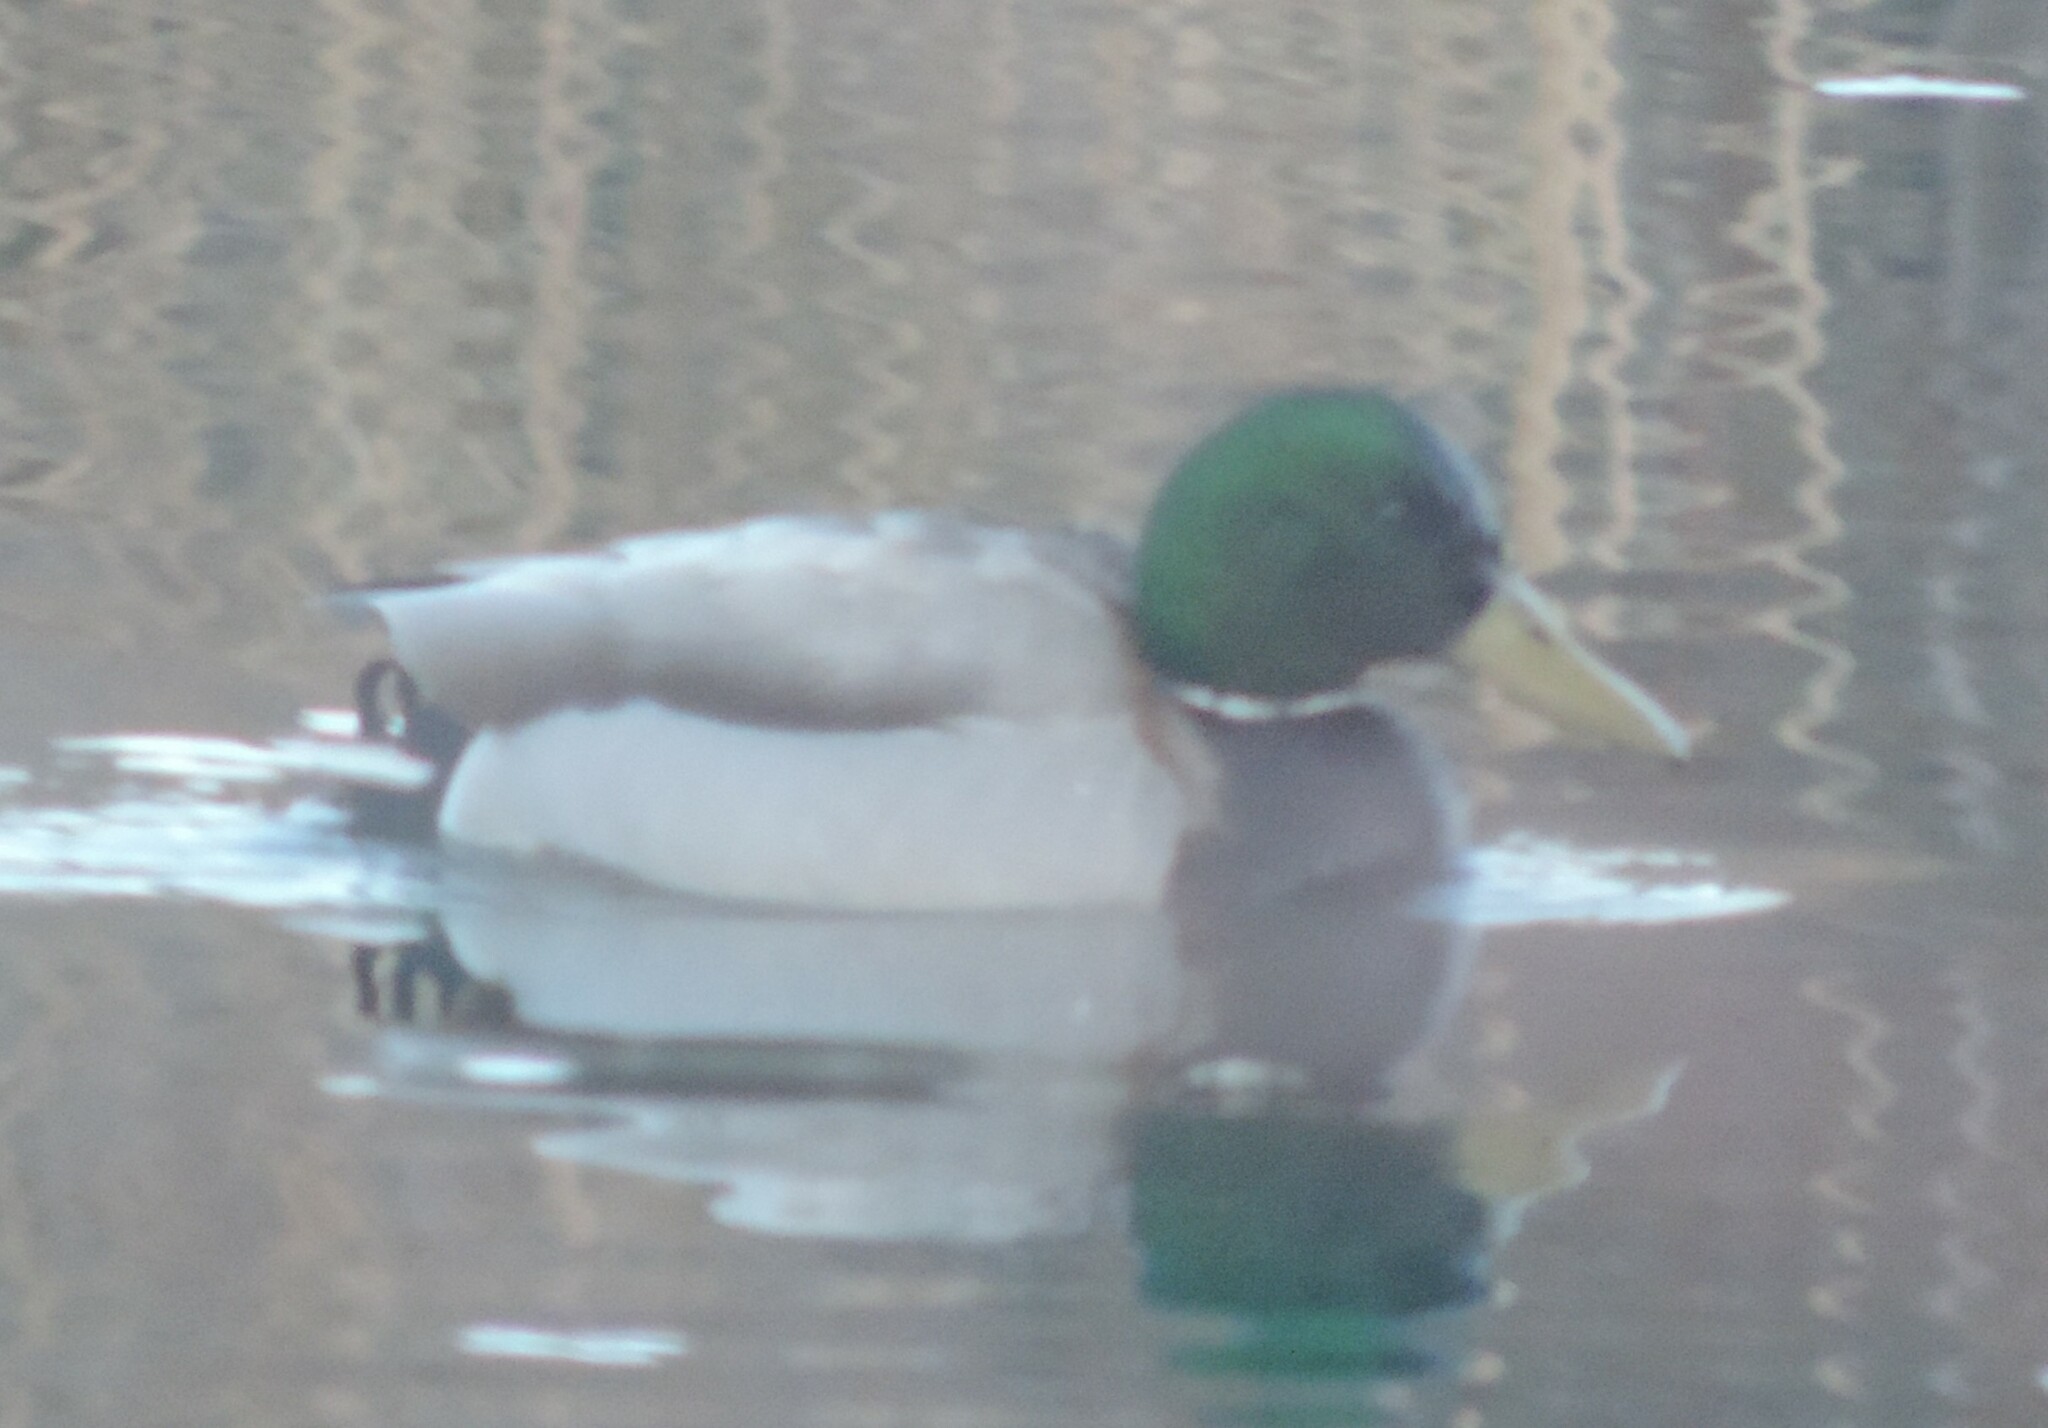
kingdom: Animalia
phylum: Chordata
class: Aves
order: Anseriformes
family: Anatidae
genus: Anas
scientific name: Anas platyrhynchos
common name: Mallard
